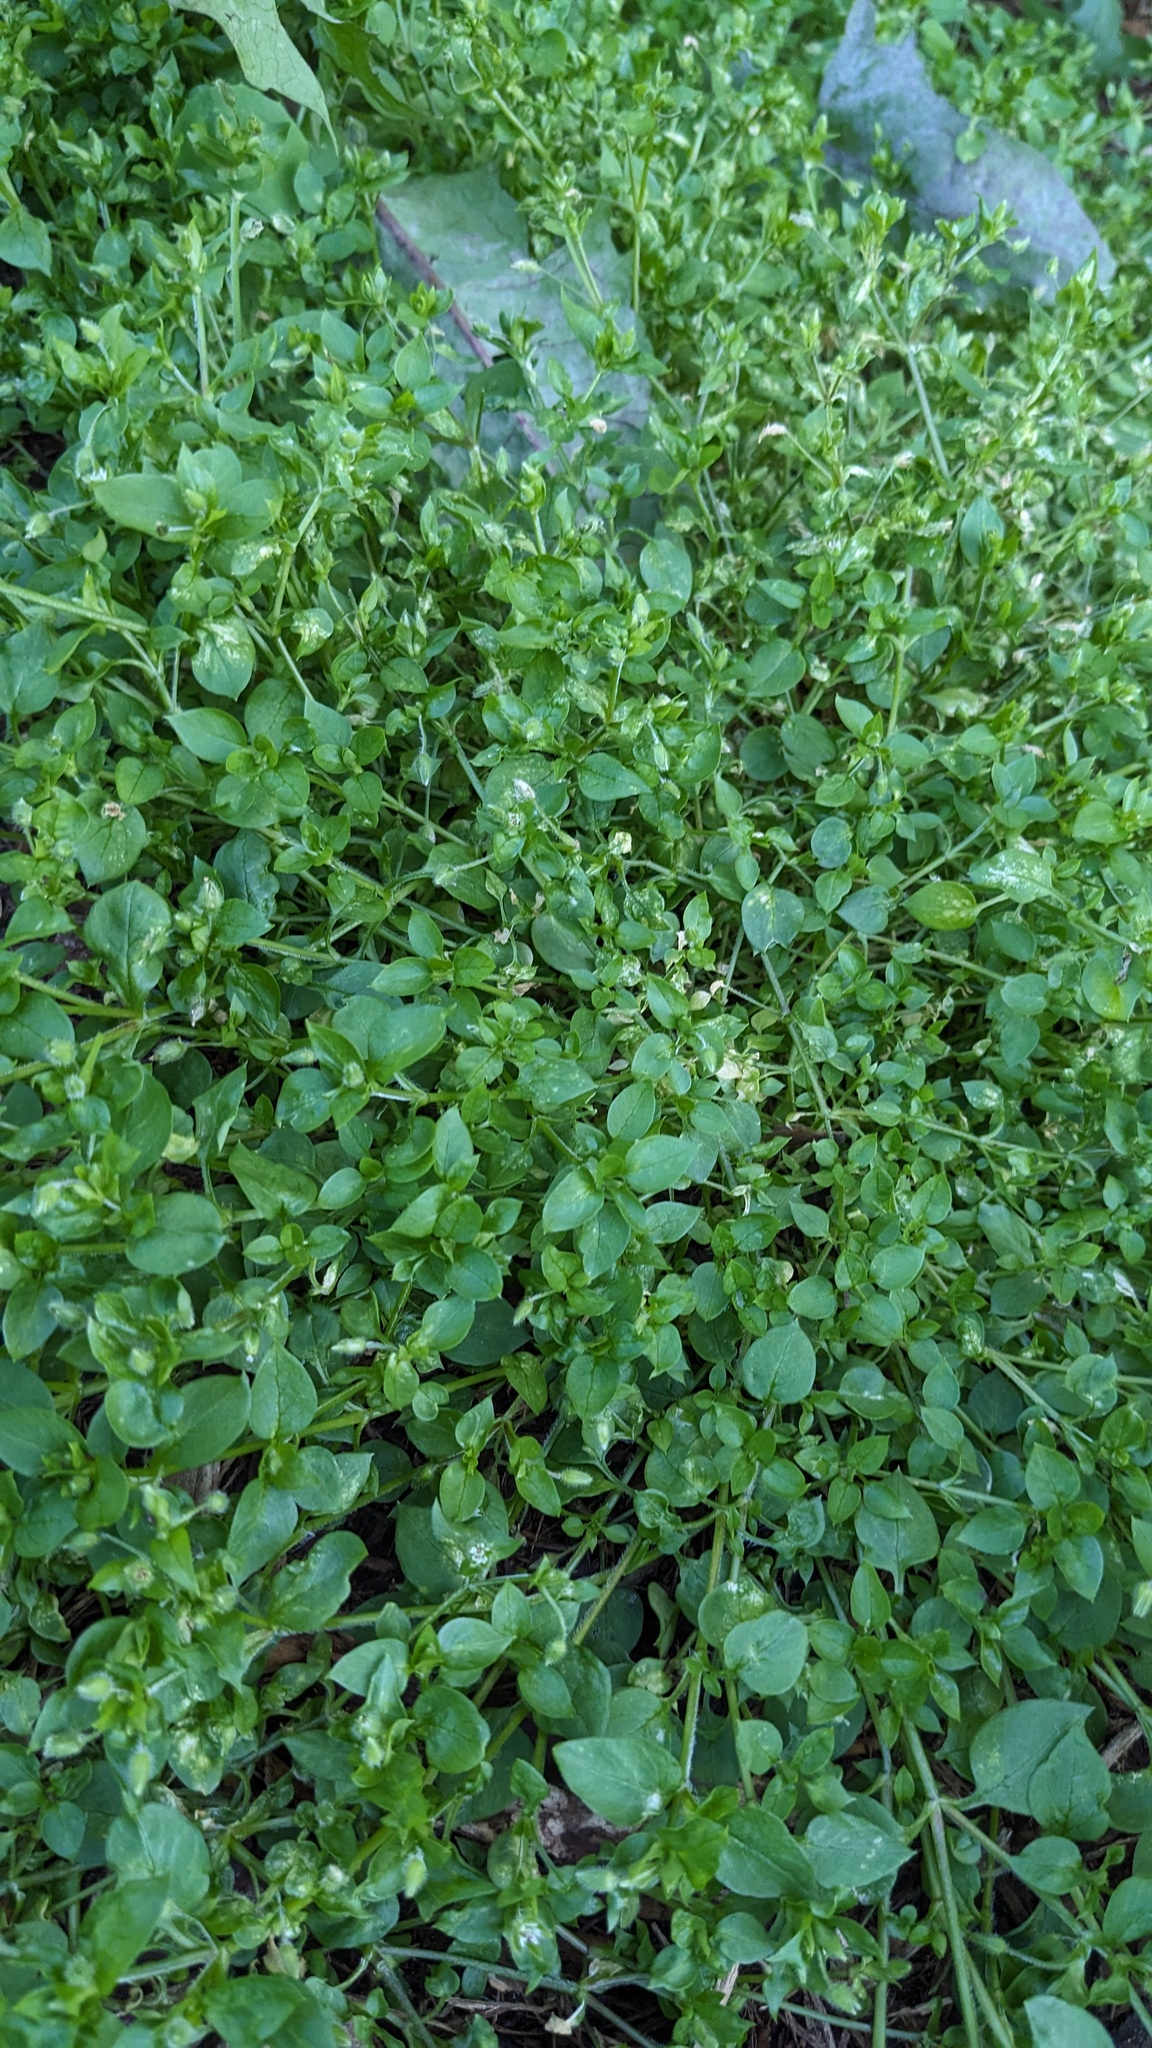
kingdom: Plantae
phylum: Tracheophyta
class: Magnoliopsida
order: Caryophyllales
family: Caryophyllaceae
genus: Stellaria
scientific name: Stellaria media
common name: Common chickweed
